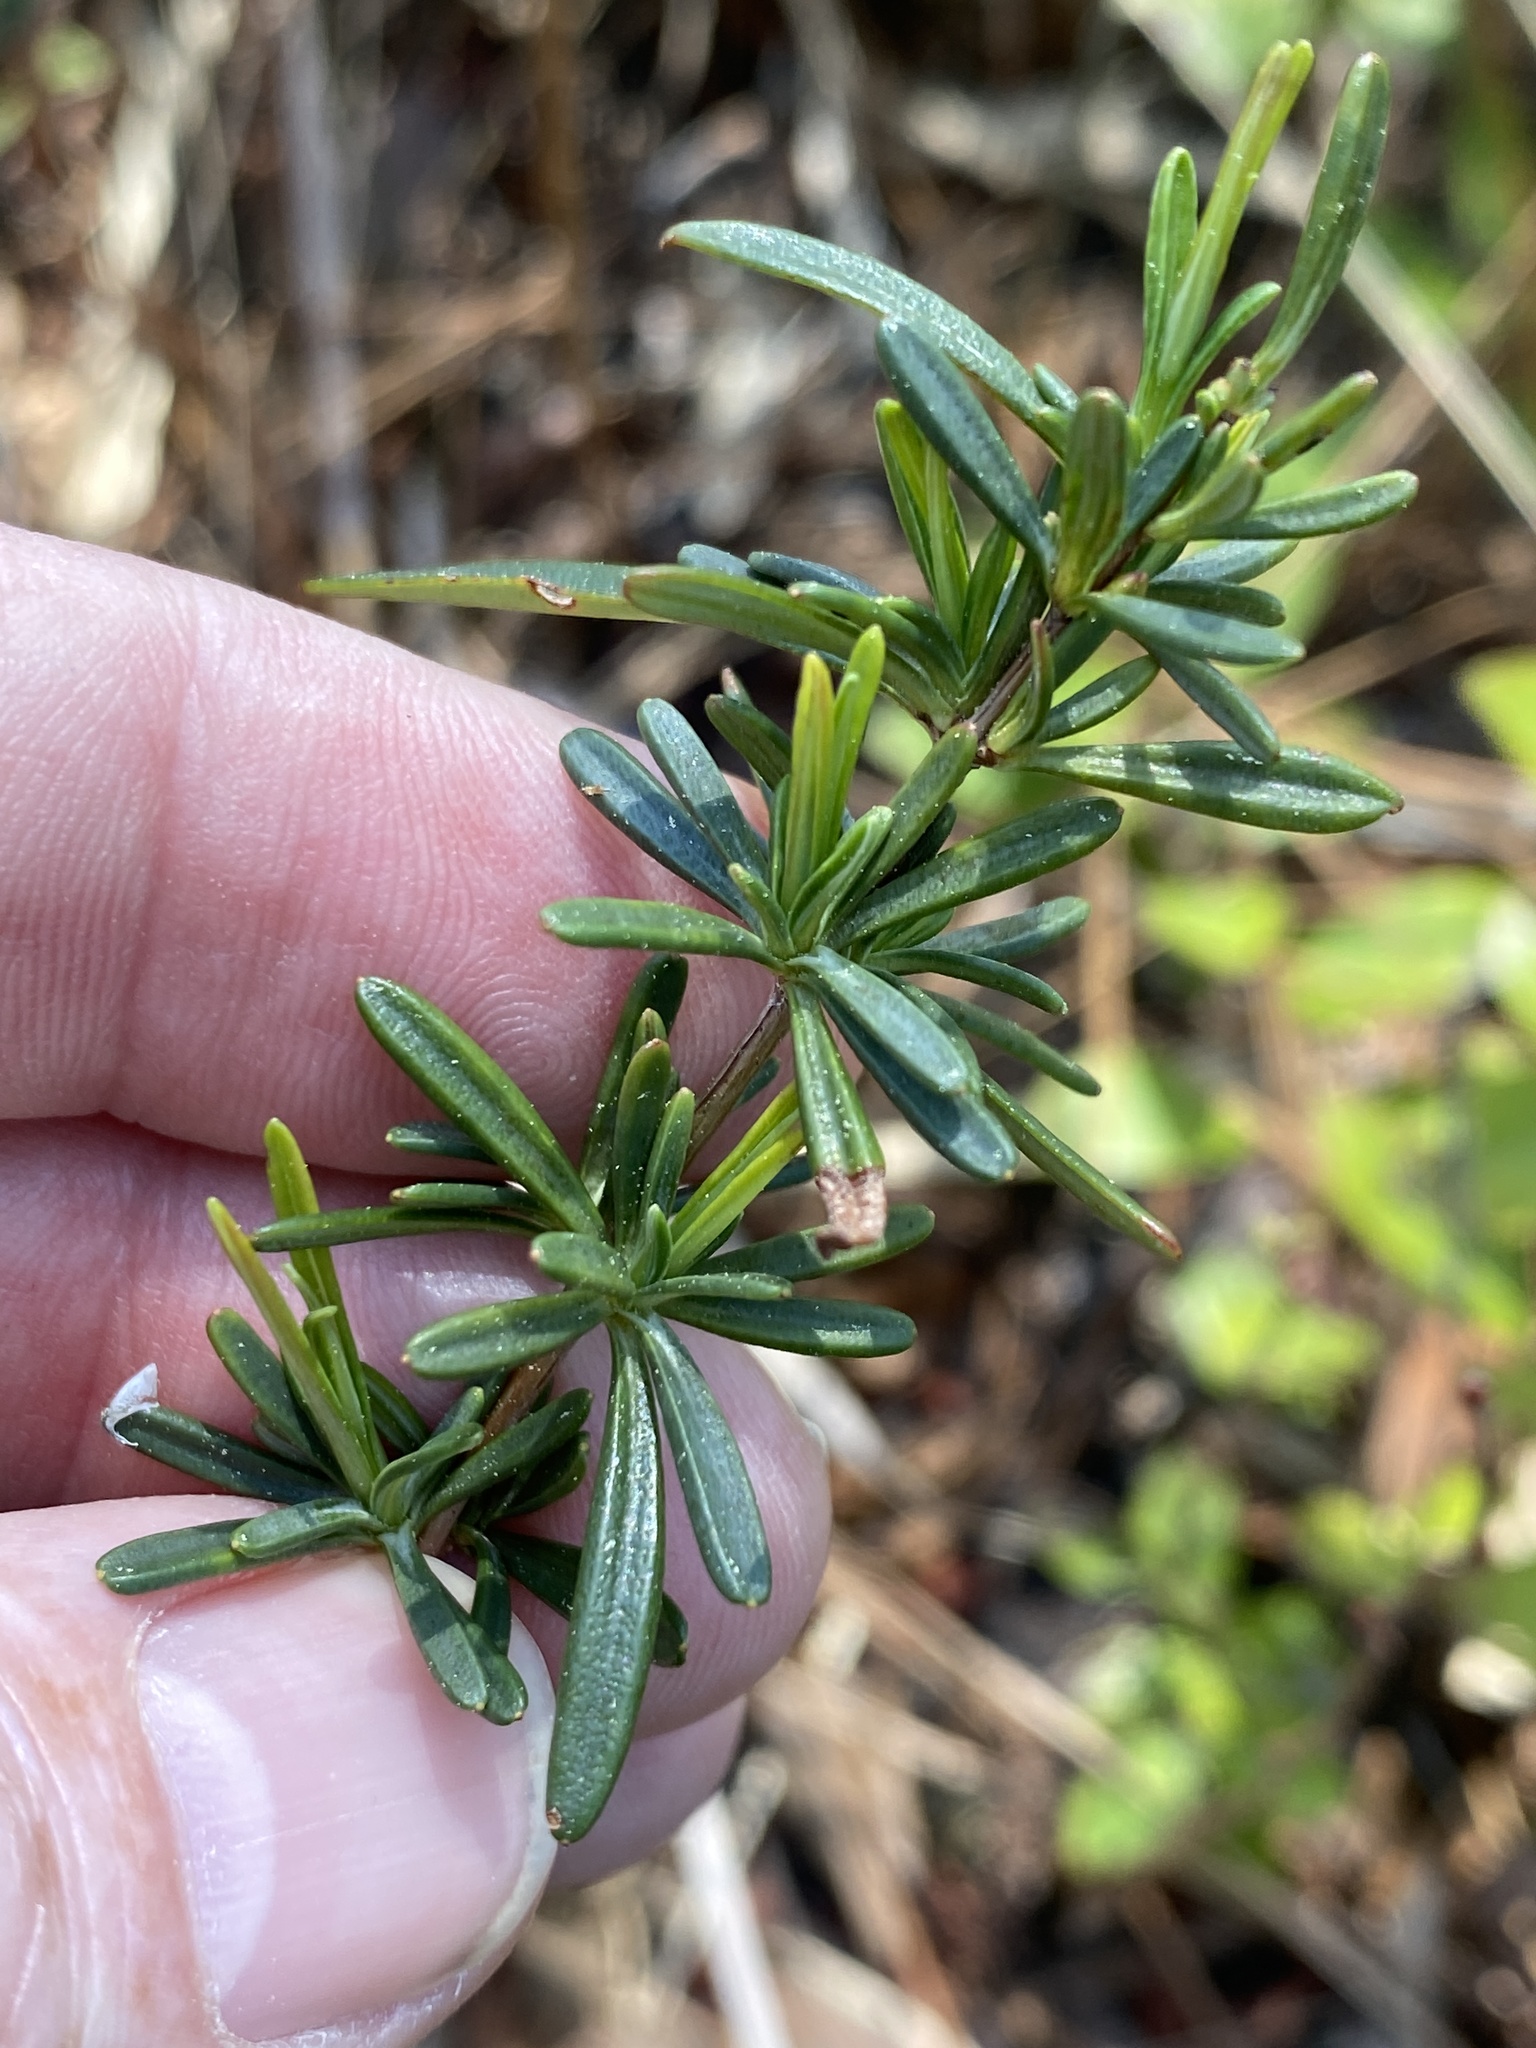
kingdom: Plantae
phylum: Tracheophyta
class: Magnoliopsida
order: Malpighiales
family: Hypericaceae
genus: Hypericum
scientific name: Hypericum galioides
